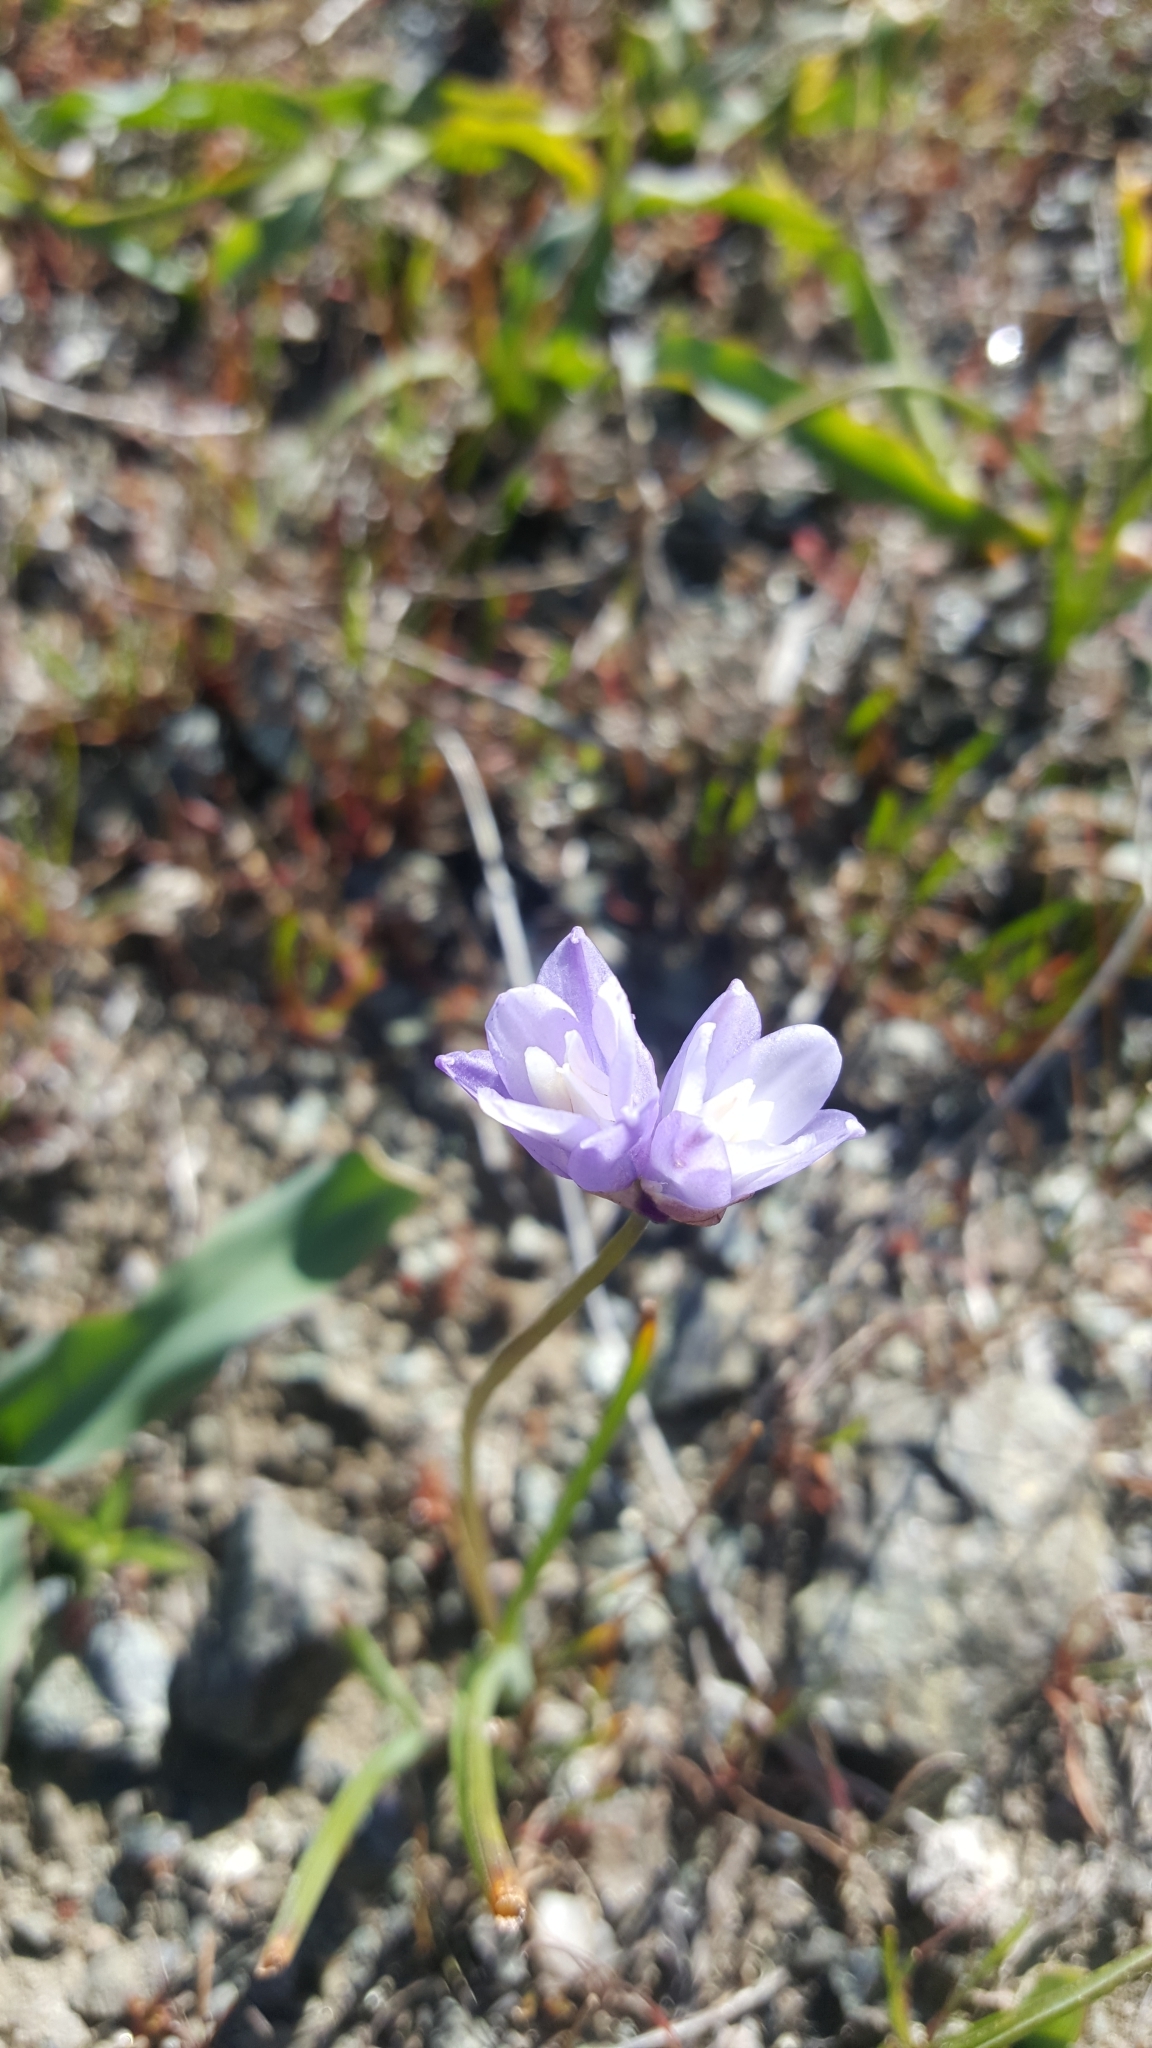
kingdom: Plantae
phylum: Tracheophyta
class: Liliopsida
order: Asparagales
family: Asparagaceae
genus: Dipterostemon
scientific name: Dipterostemon capitatus
